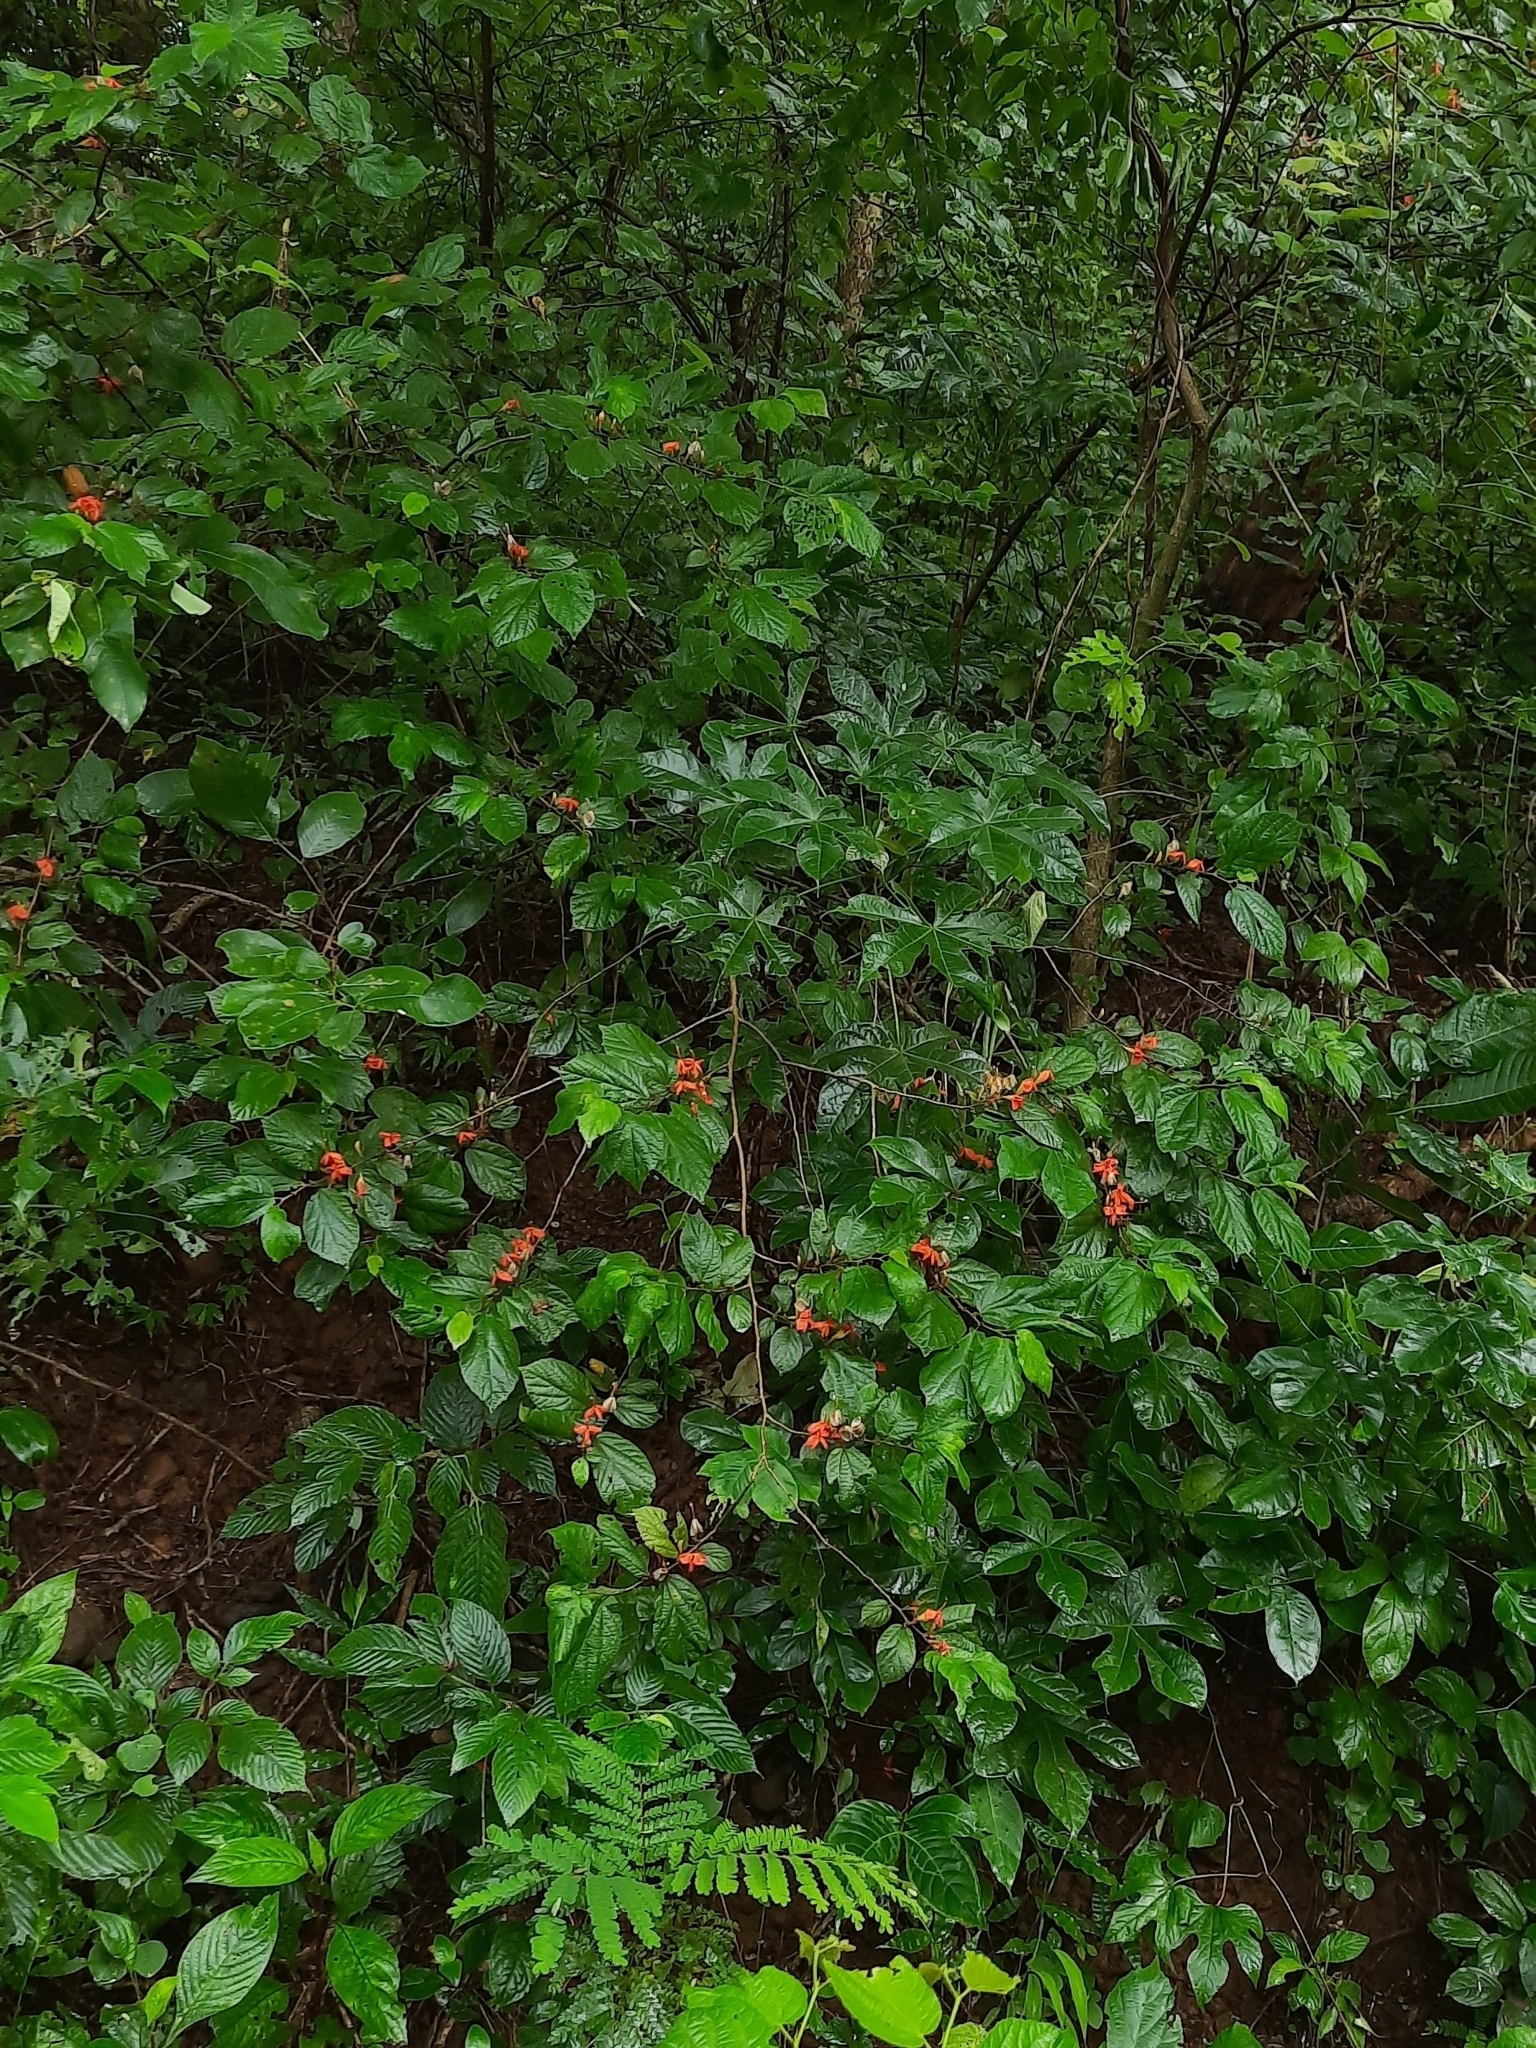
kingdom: Plantae
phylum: Tracheophyta
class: Magnoliopsida
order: Malvales
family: Malvaceae
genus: Helicteres
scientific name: Helicteres isora
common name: East indian screwtree
